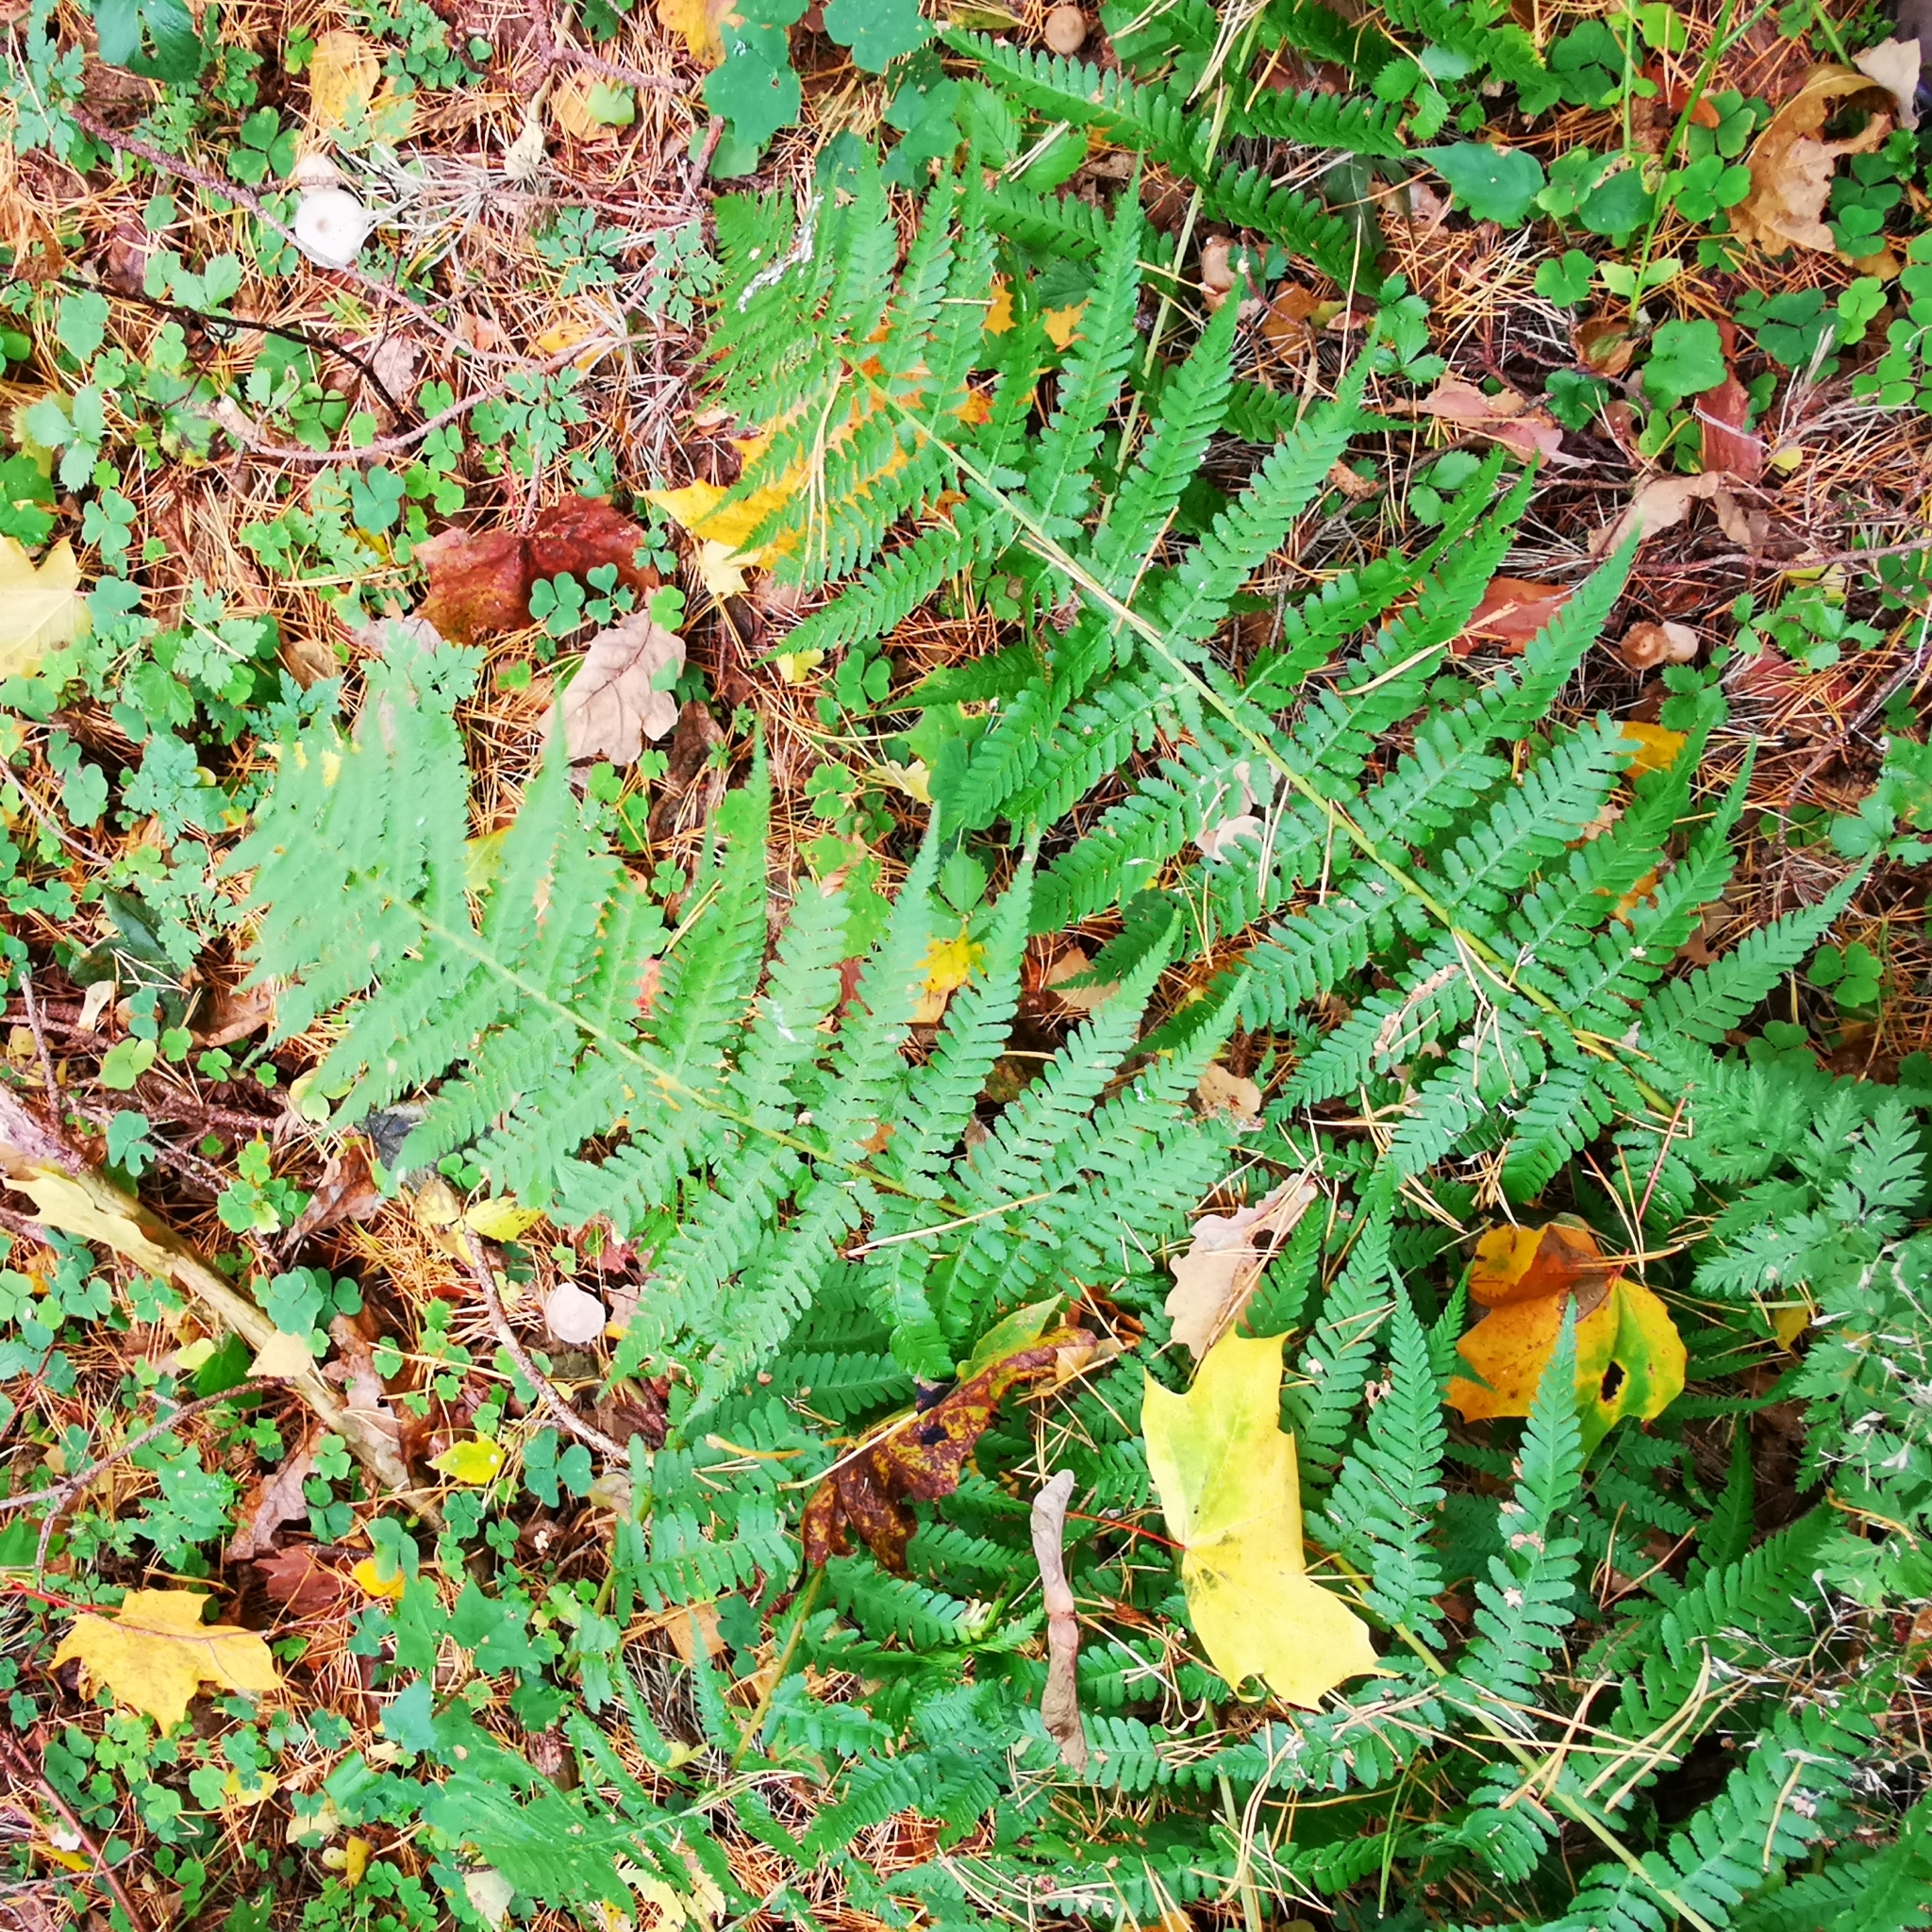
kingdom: Plantae
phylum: Tracheophyta
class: Polypodiopsida
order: Polypodiales
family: Dryopteridaceae
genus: Dryopteris
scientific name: Dryopteris filix-mas
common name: Male fern
